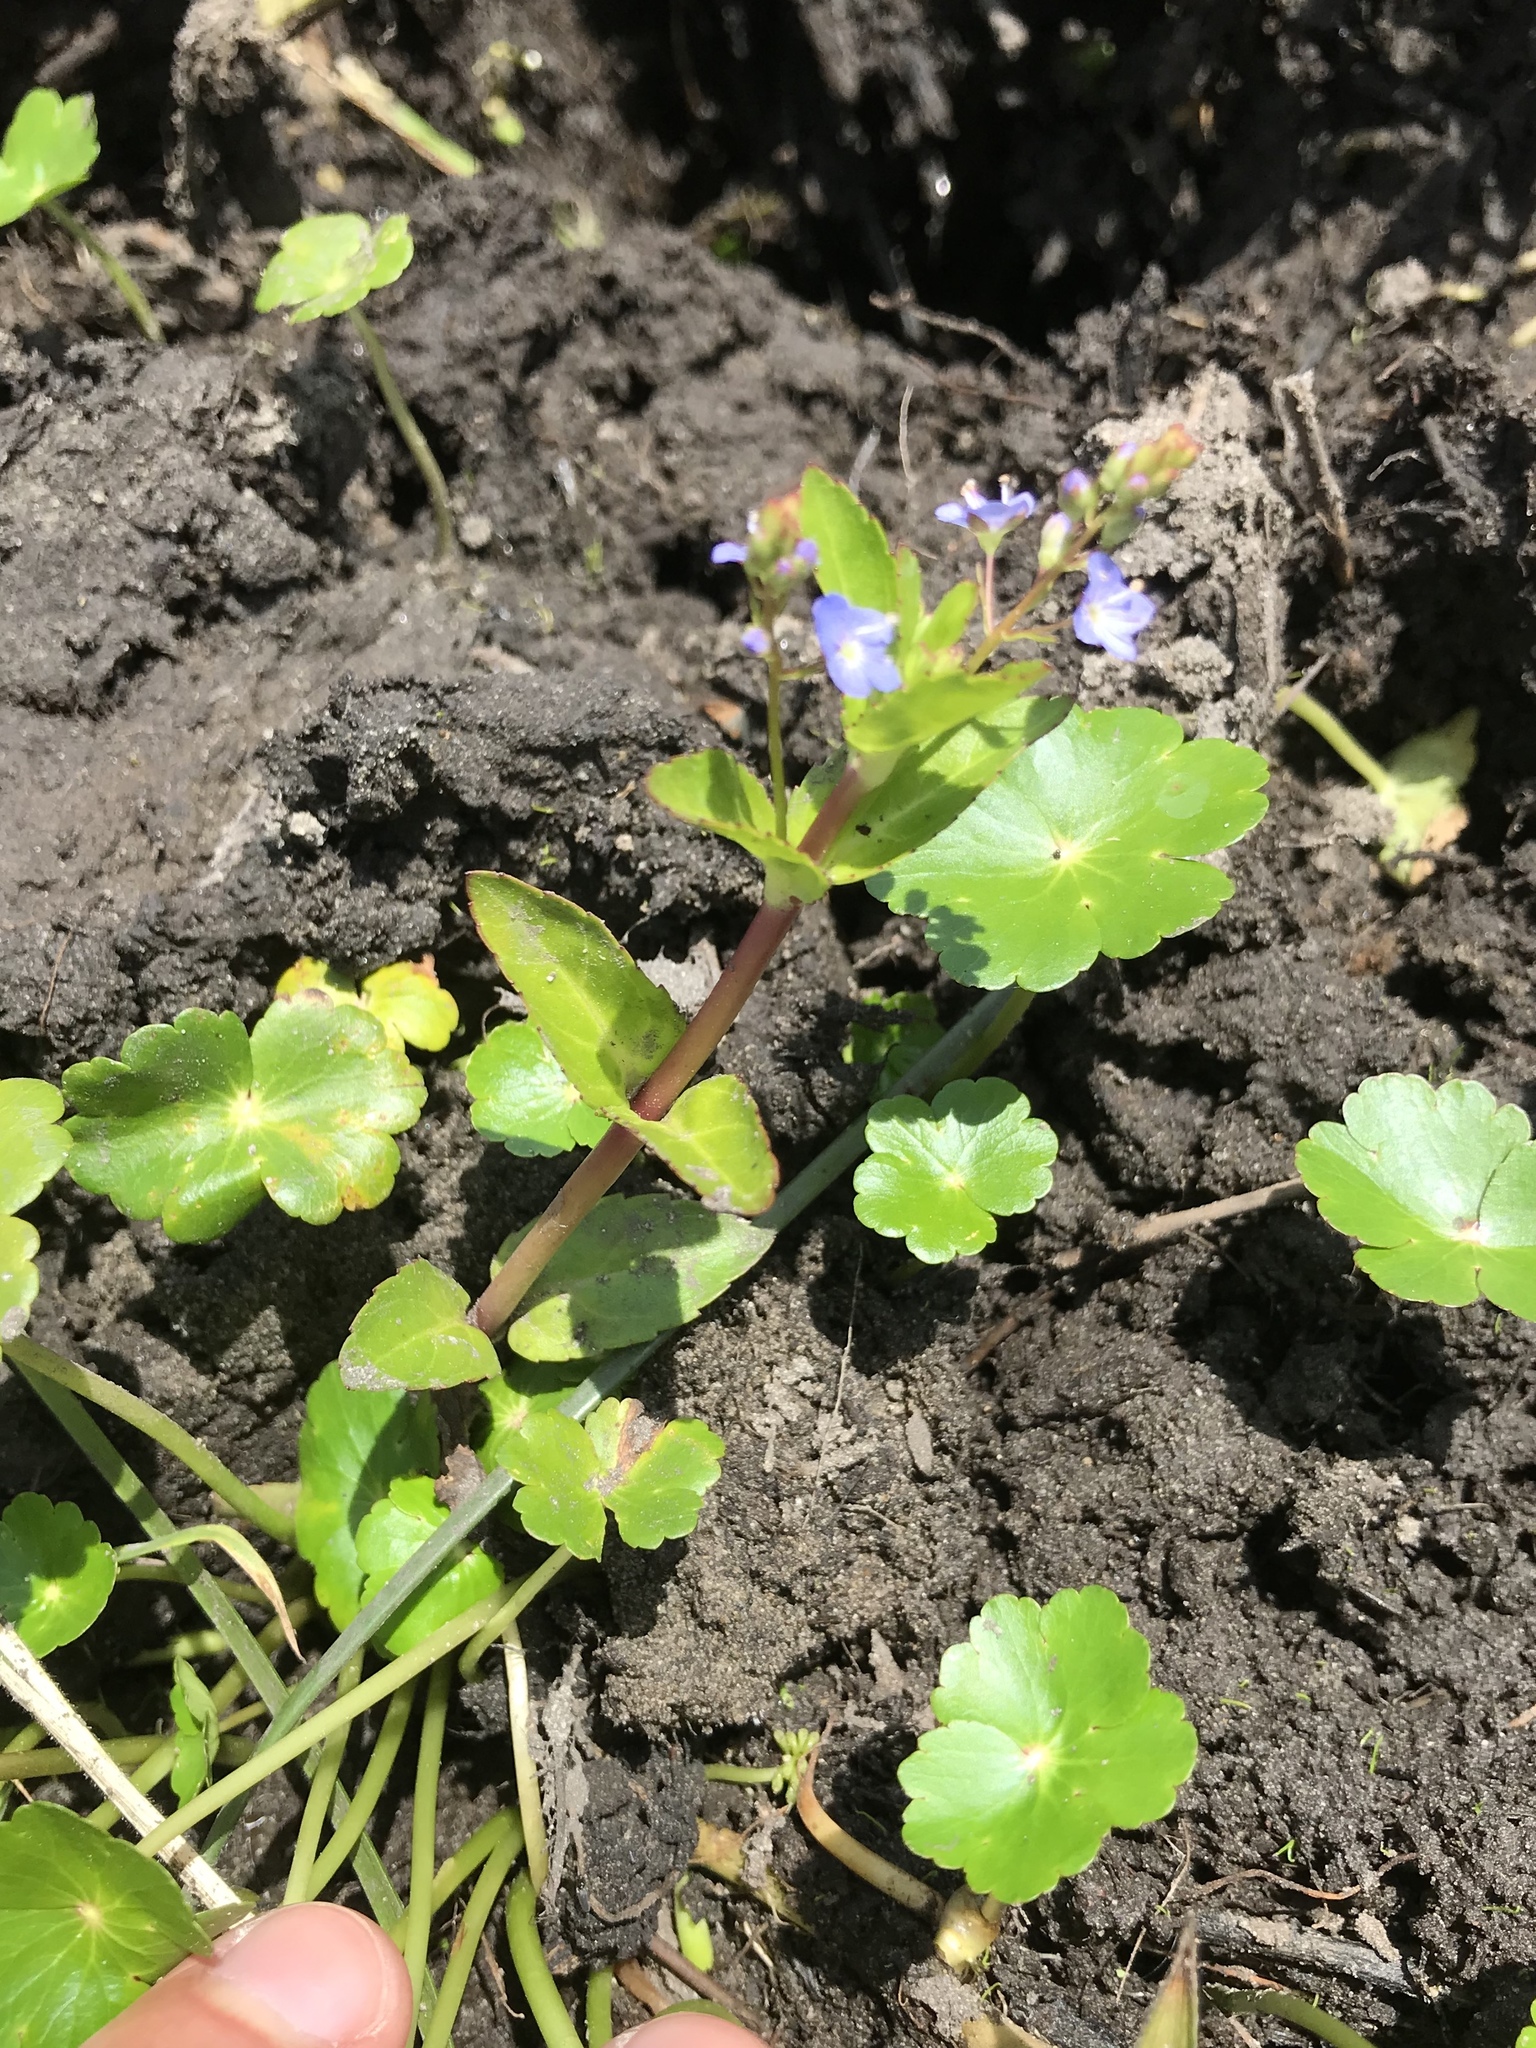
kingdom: Plantae
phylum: Tracheophyta
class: Magnoliopsida
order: Lamiales
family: Plantaginaceae
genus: Veronica
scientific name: Veronica americana
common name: American brooklime
